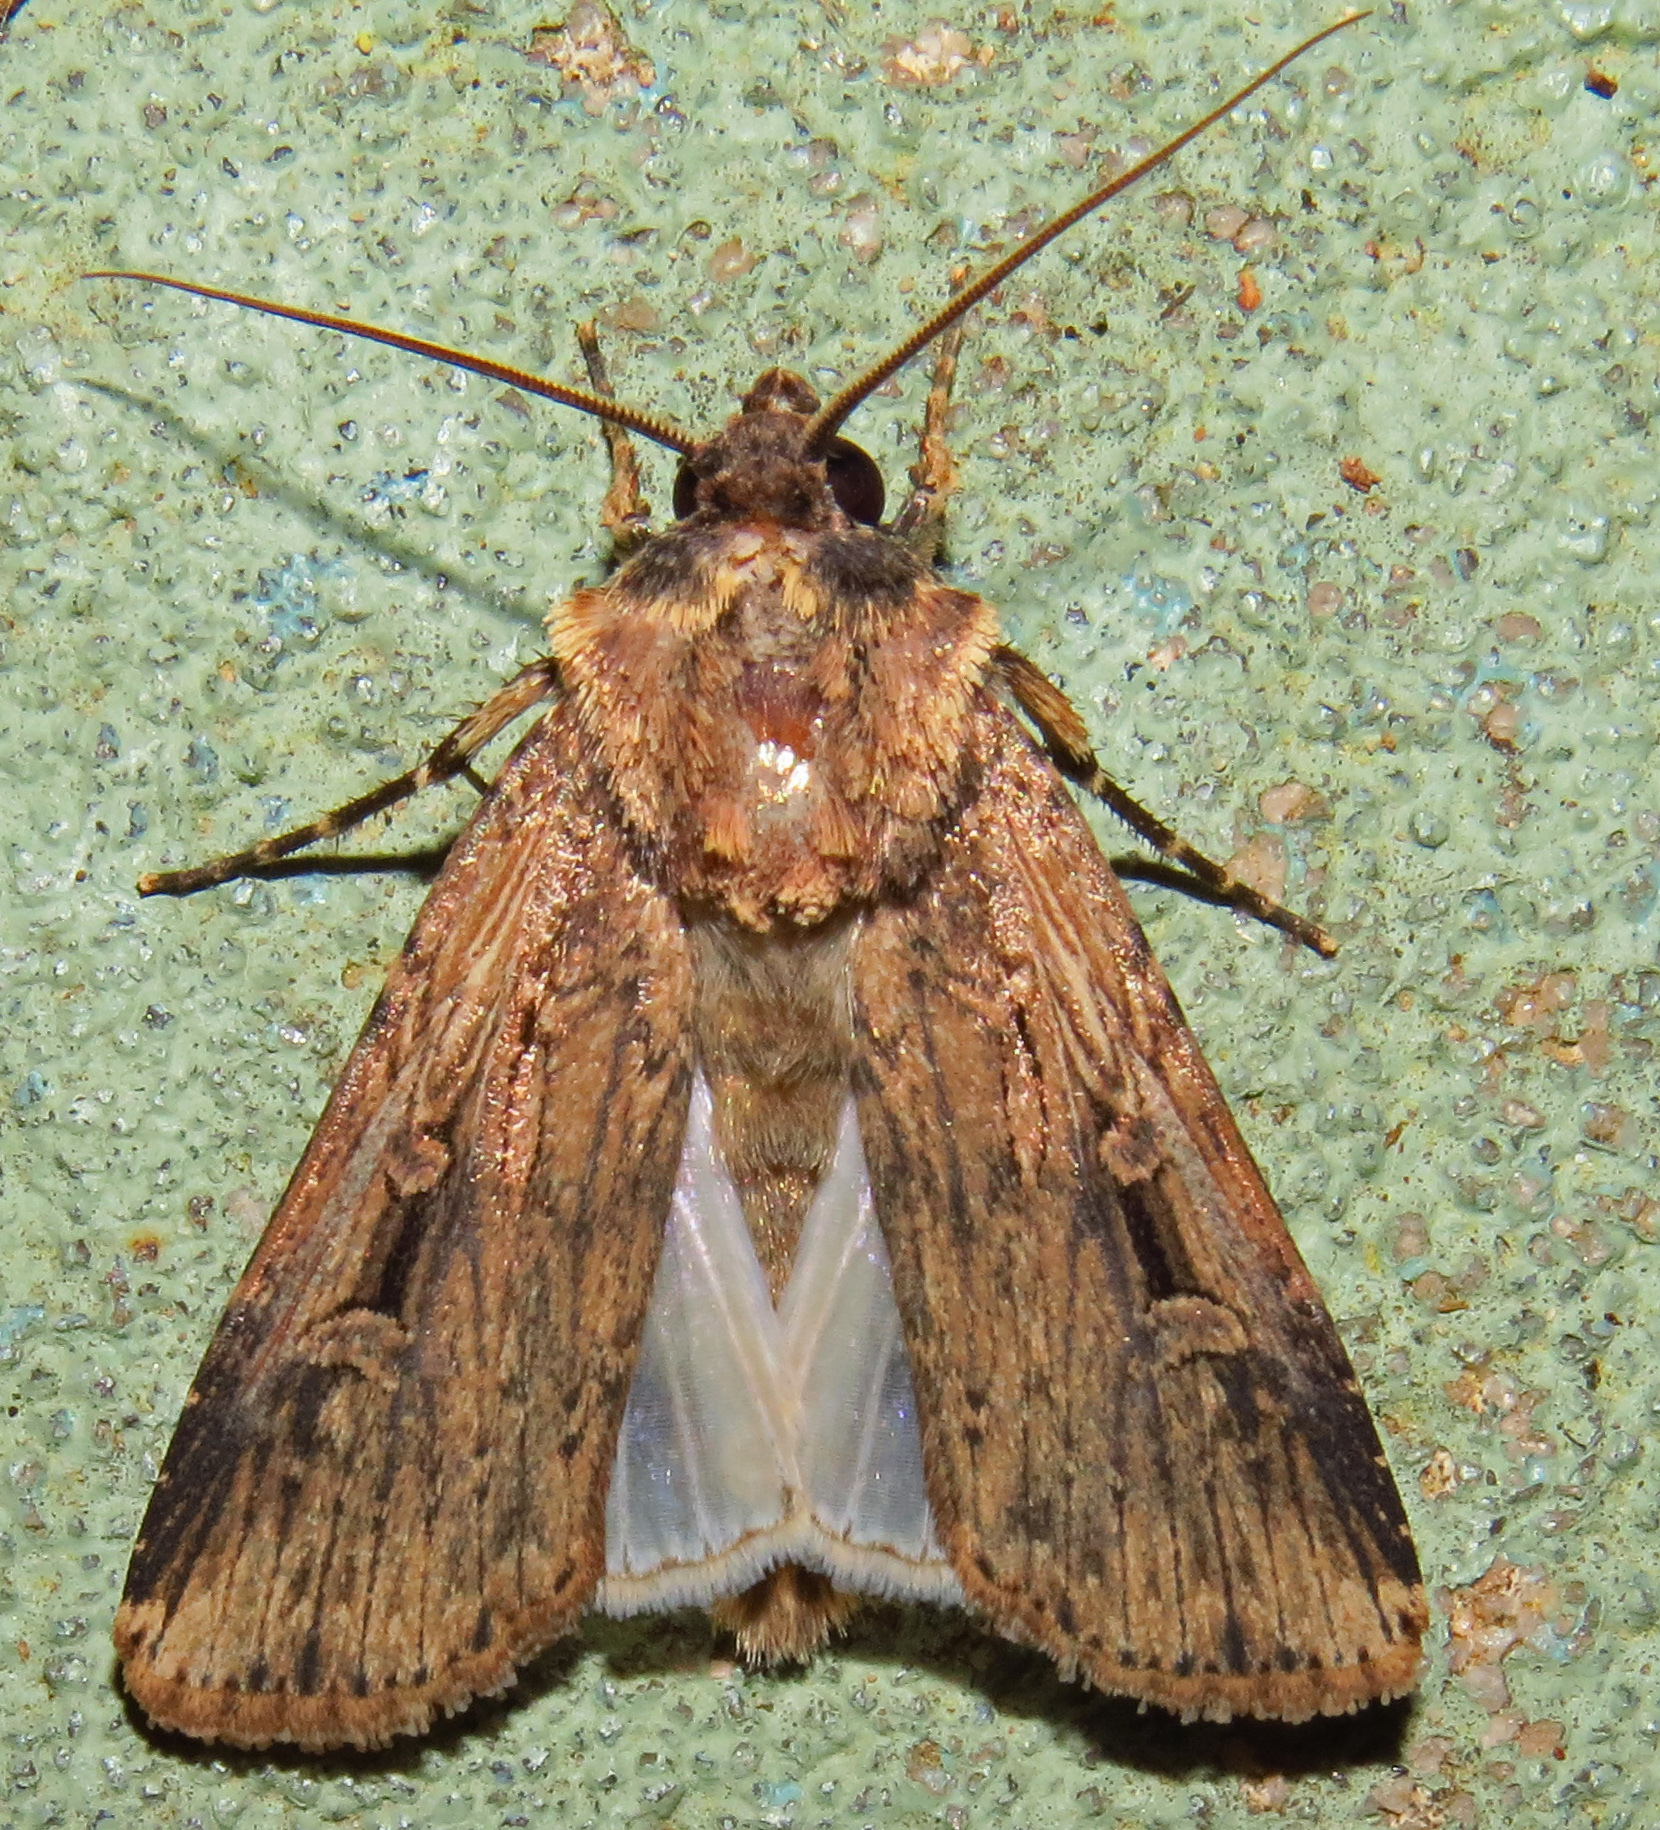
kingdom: Animalia
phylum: Arthropoda
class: Insecta
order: Lepidoptera
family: Noctuidae
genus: Feltia
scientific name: Feltia subterranea
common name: Granulate cutworm
